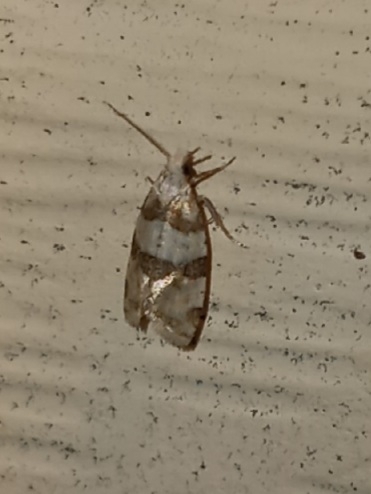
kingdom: Animalia
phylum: Arthropoda
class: Insecta
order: Lepidoptera
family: Tortricidae
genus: Aethes
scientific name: Aethes argentilimitana
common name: Silver-bordered aethes
